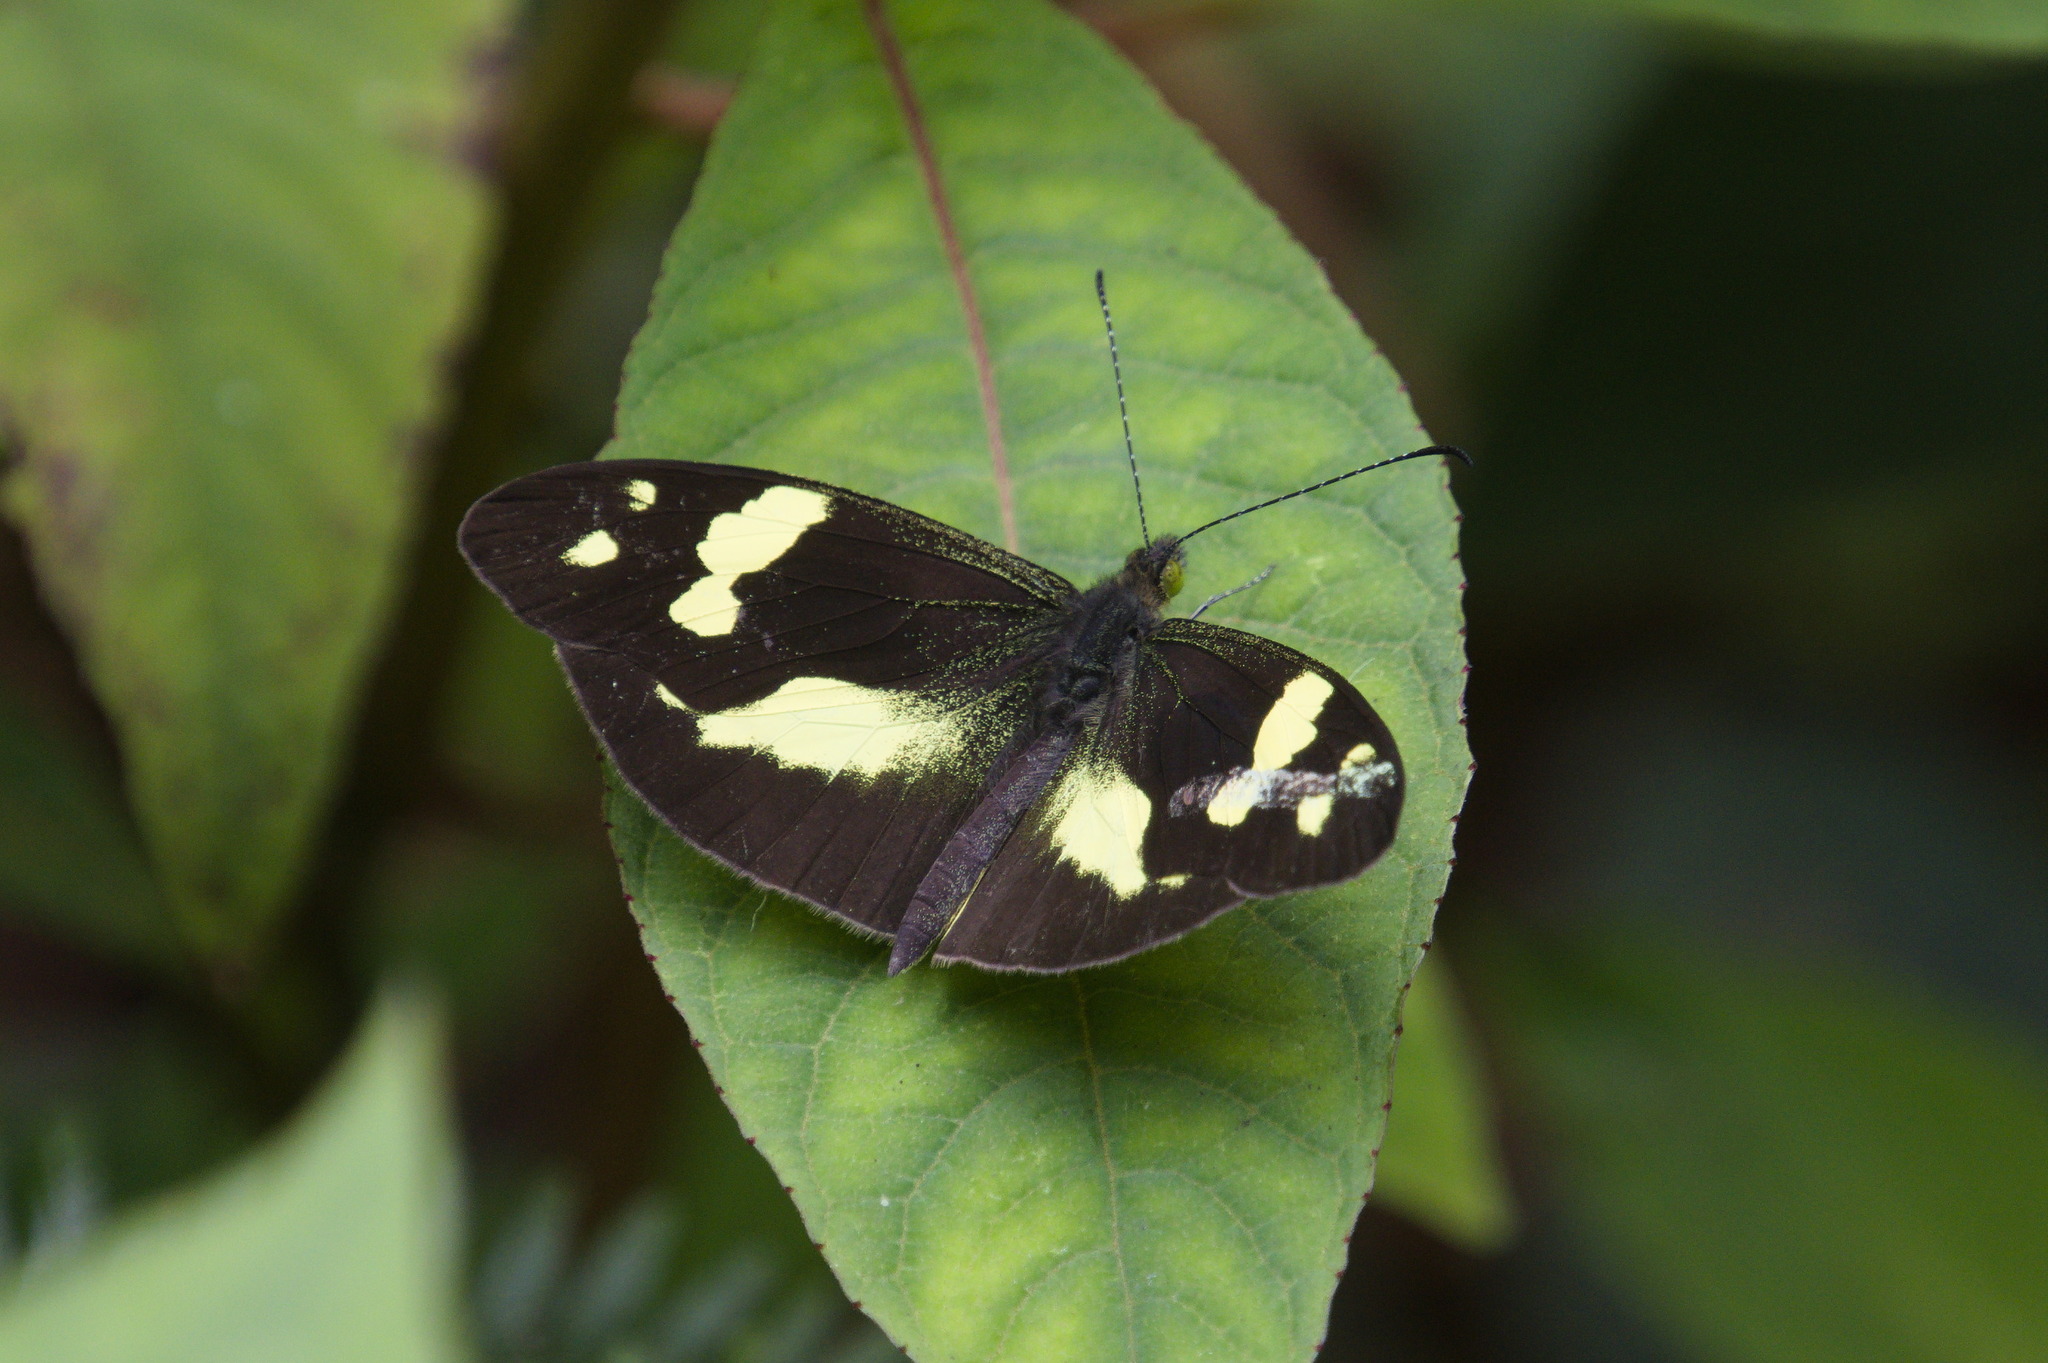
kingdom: Animalia
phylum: Arthropoda
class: Insecta
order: Lepidoptera
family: Pieridae
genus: Dismorphia
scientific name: Dismorphia medora
